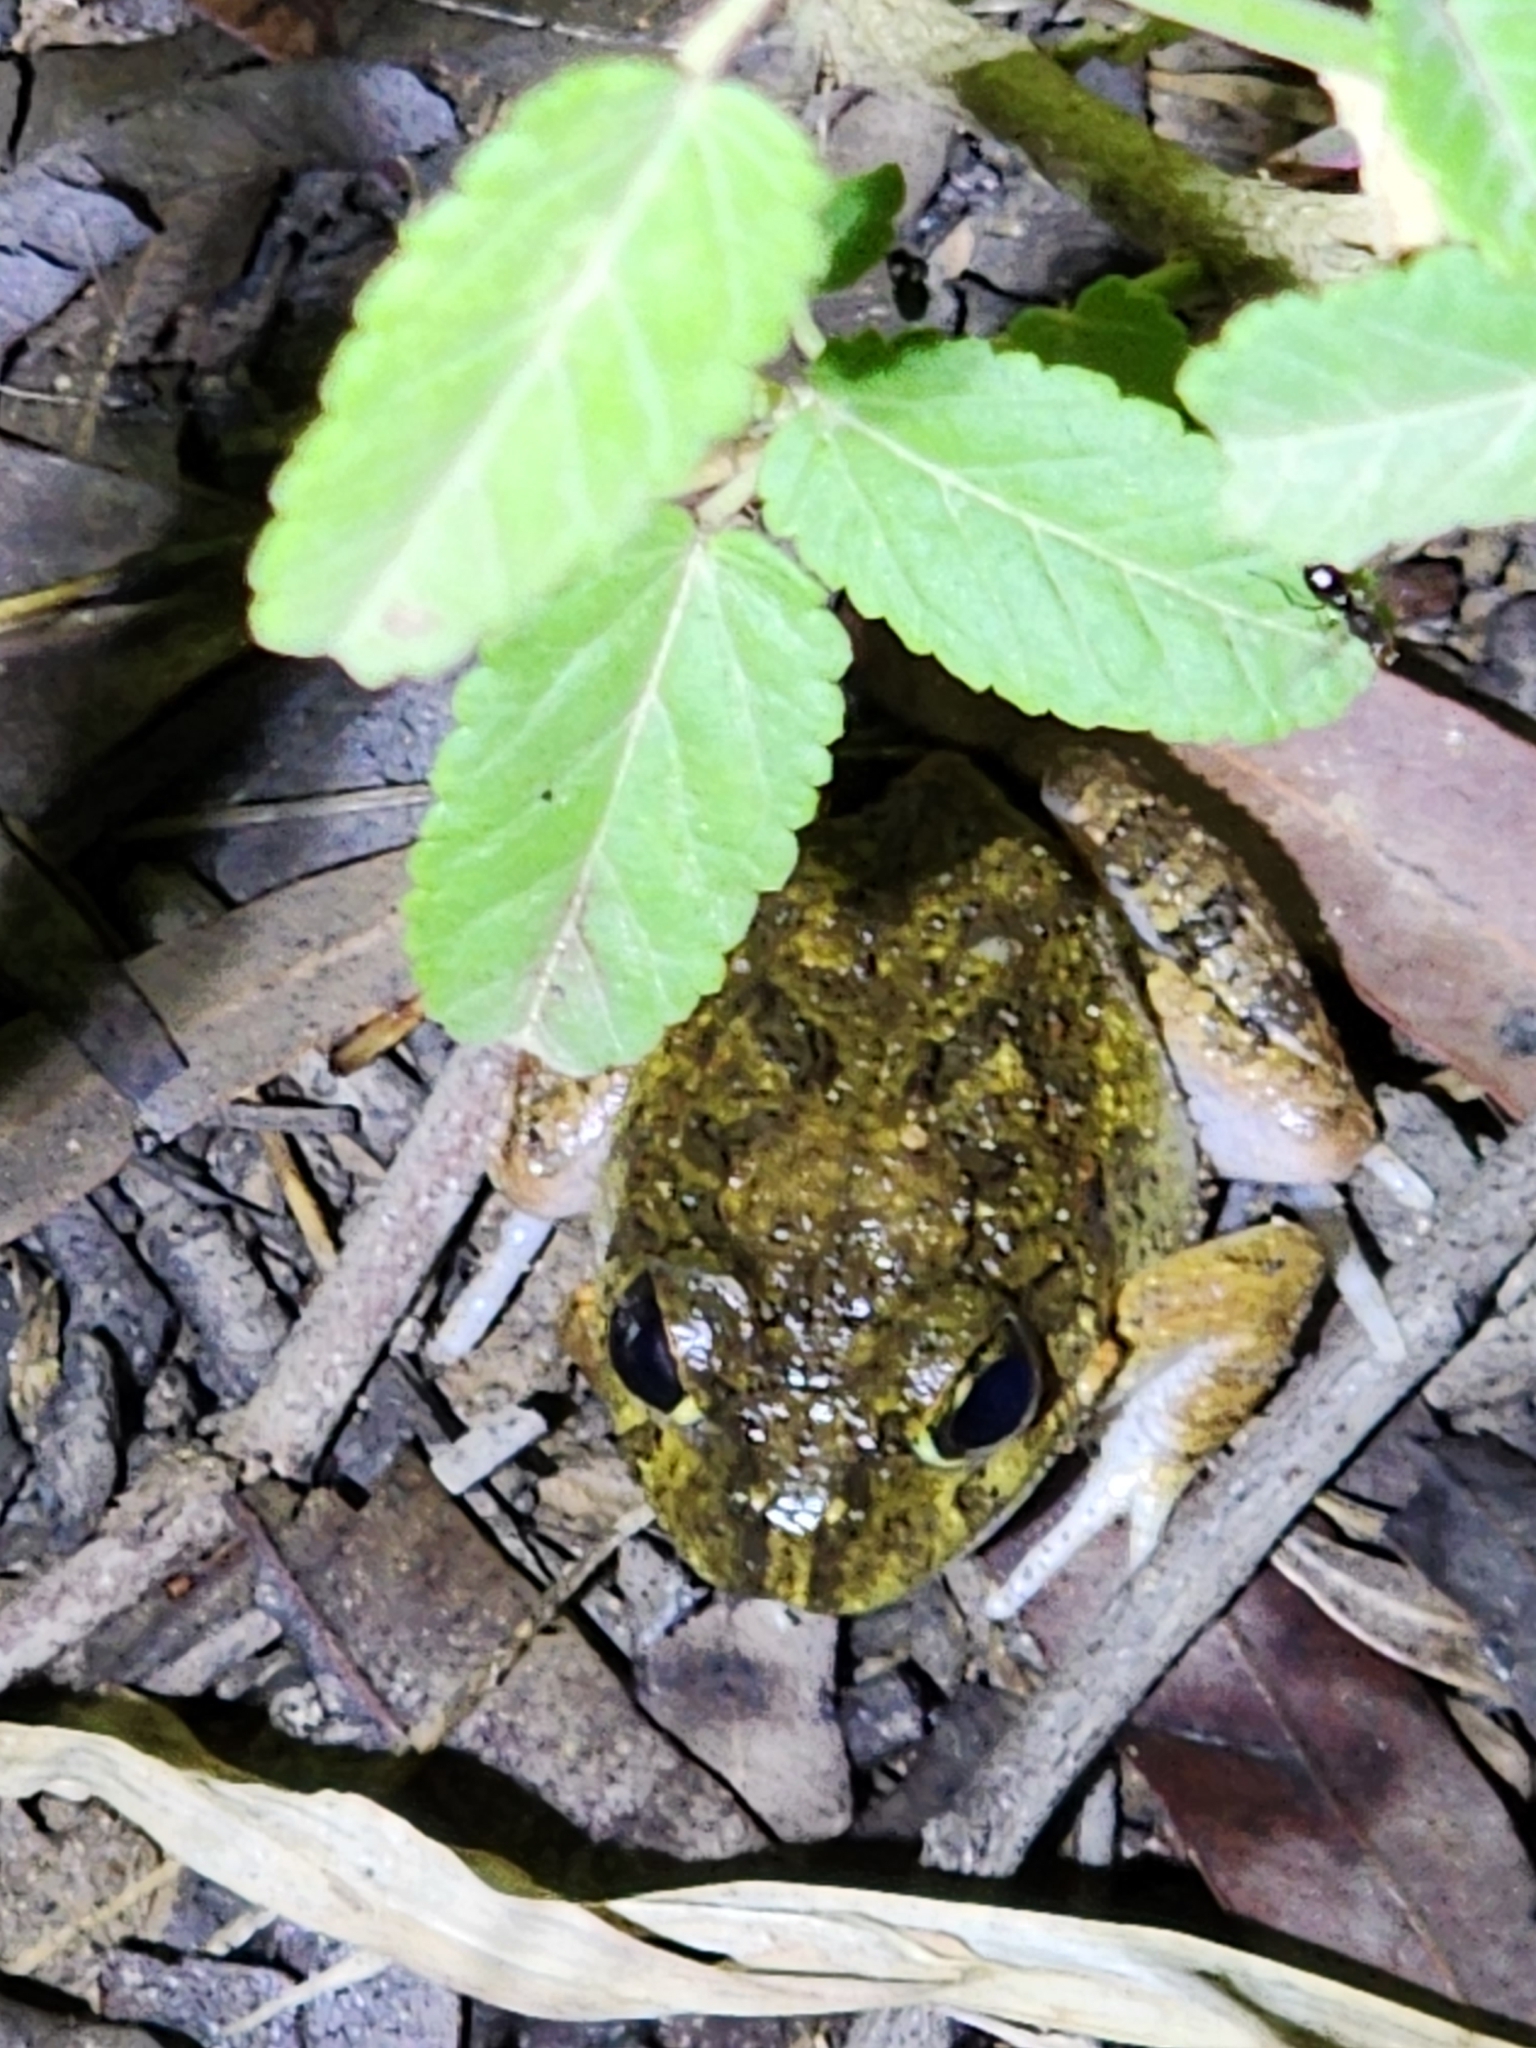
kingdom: Animalia
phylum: Chordata
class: Amphibia
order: Anura
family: Limnodynastidae
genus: Platyplectrum
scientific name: Platyplectrum ornatum
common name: Ornate burrowing frog
